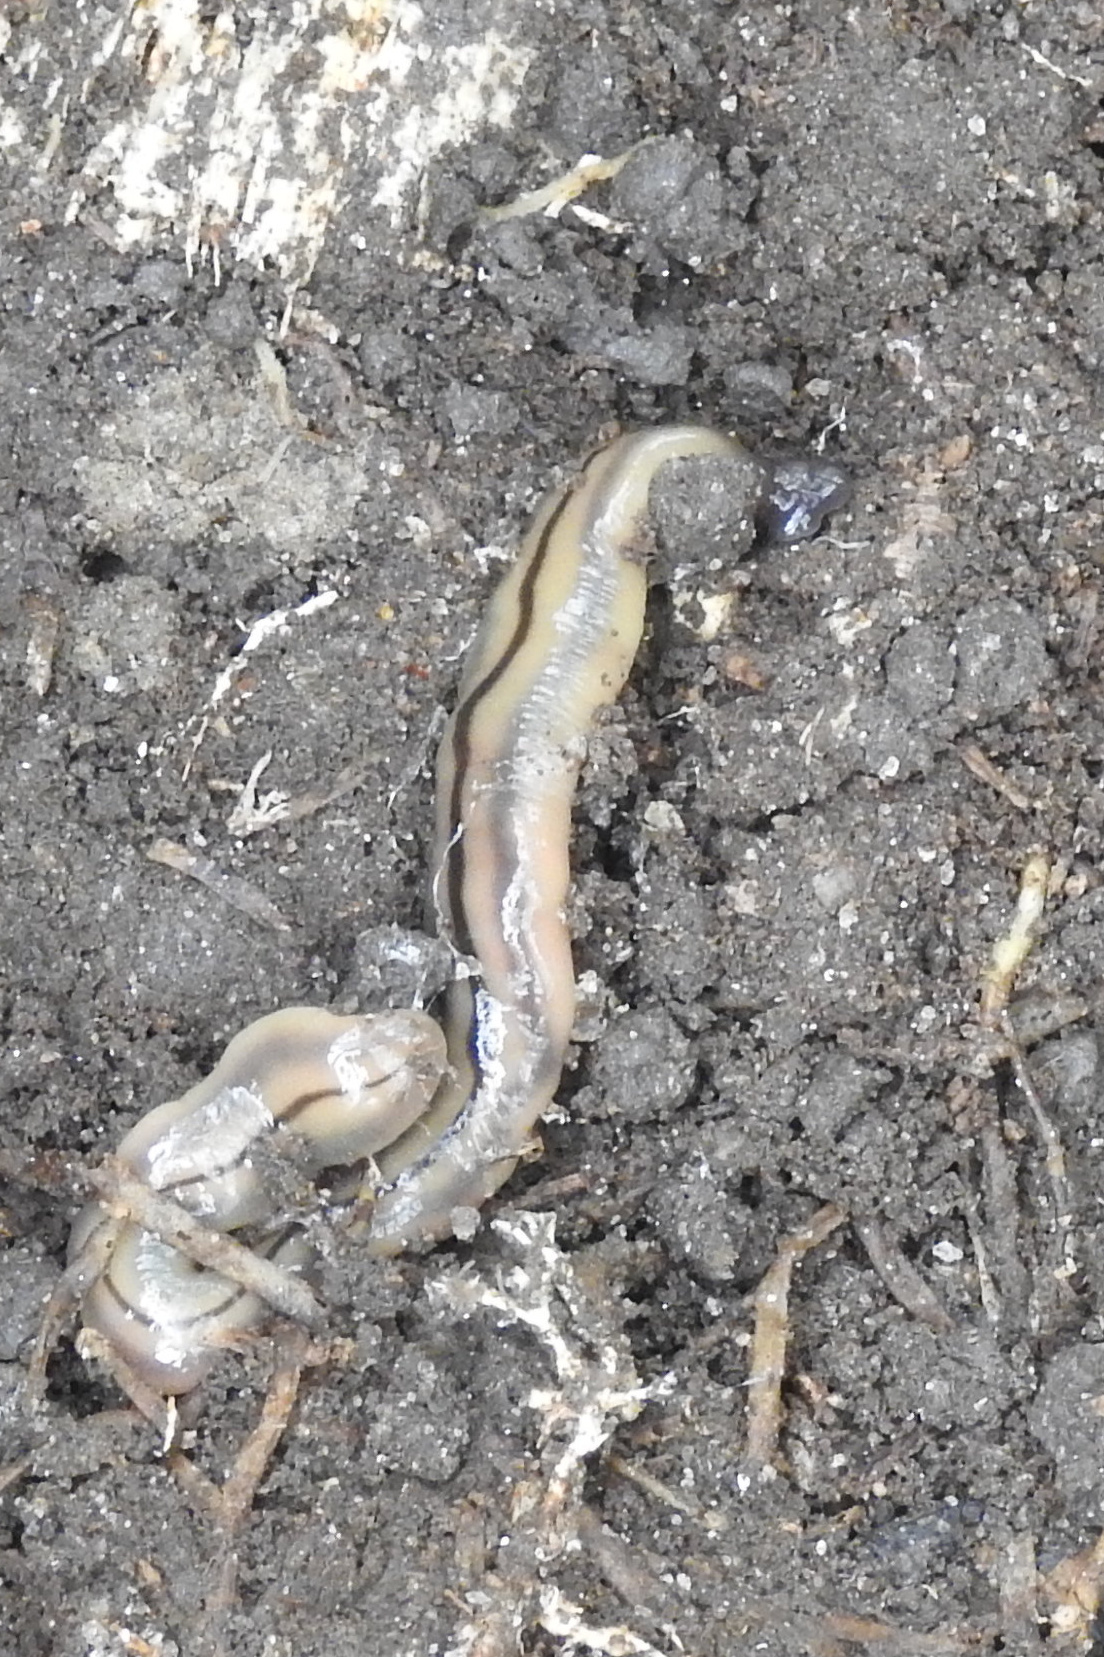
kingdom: Animalia
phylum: Platyhelminthes
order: Tricladida
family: Geoplanidae
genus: Bipalium
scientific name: Bipalium pennsylvanicum
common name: Three-lined land planarian
